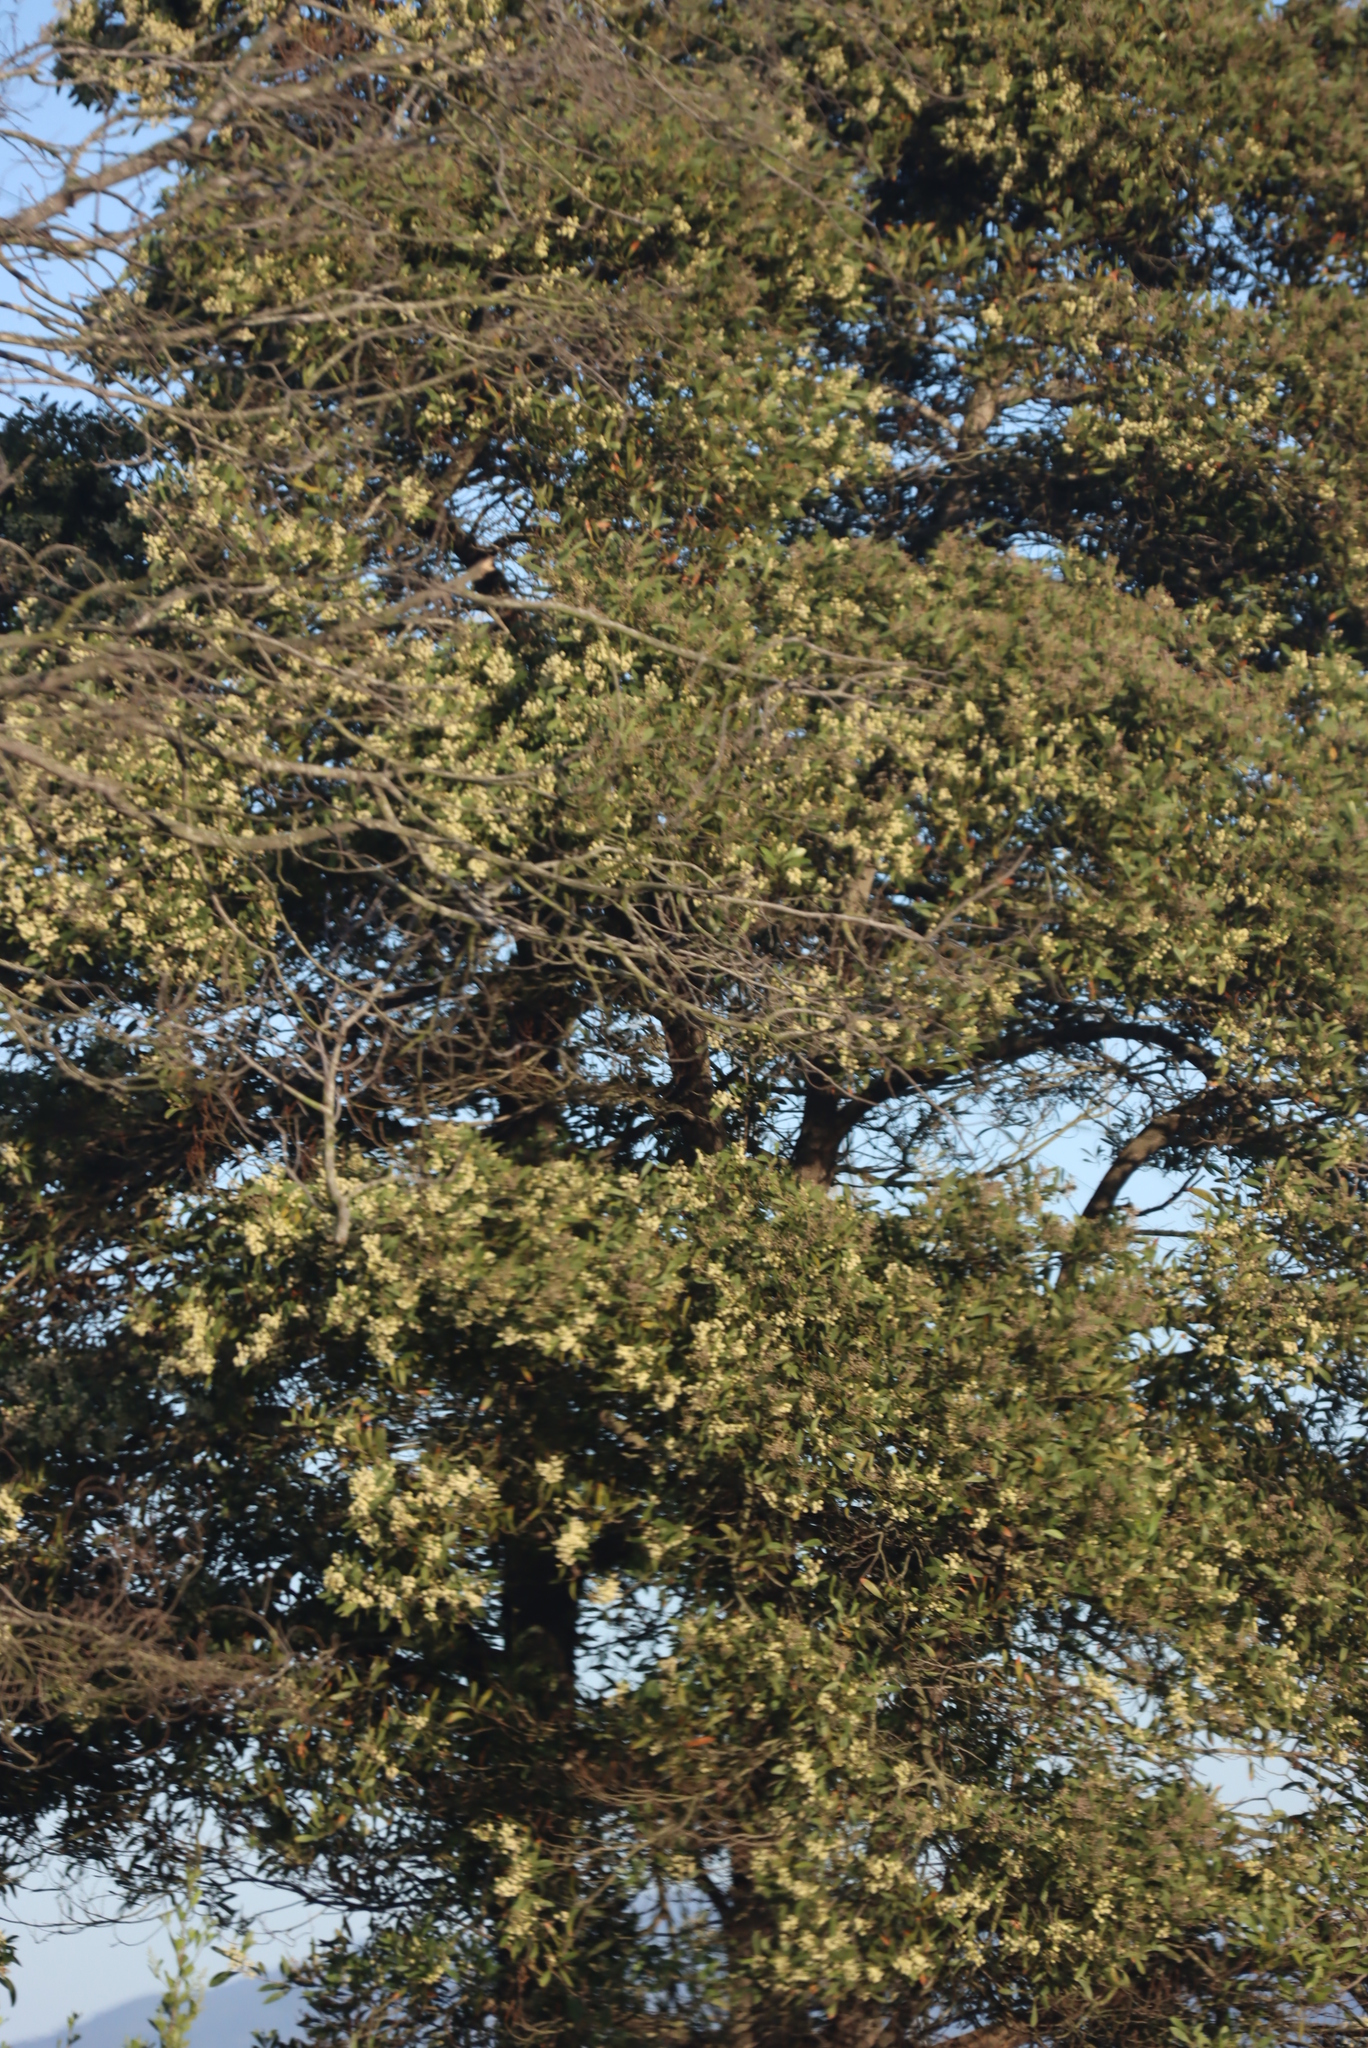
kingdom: Plantae
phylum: Tracheophyta
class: Magnoliopsida
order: Fabales
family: Fabaceae
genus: Acacia
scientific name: Acacia melanoxylon
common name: Blackwood
